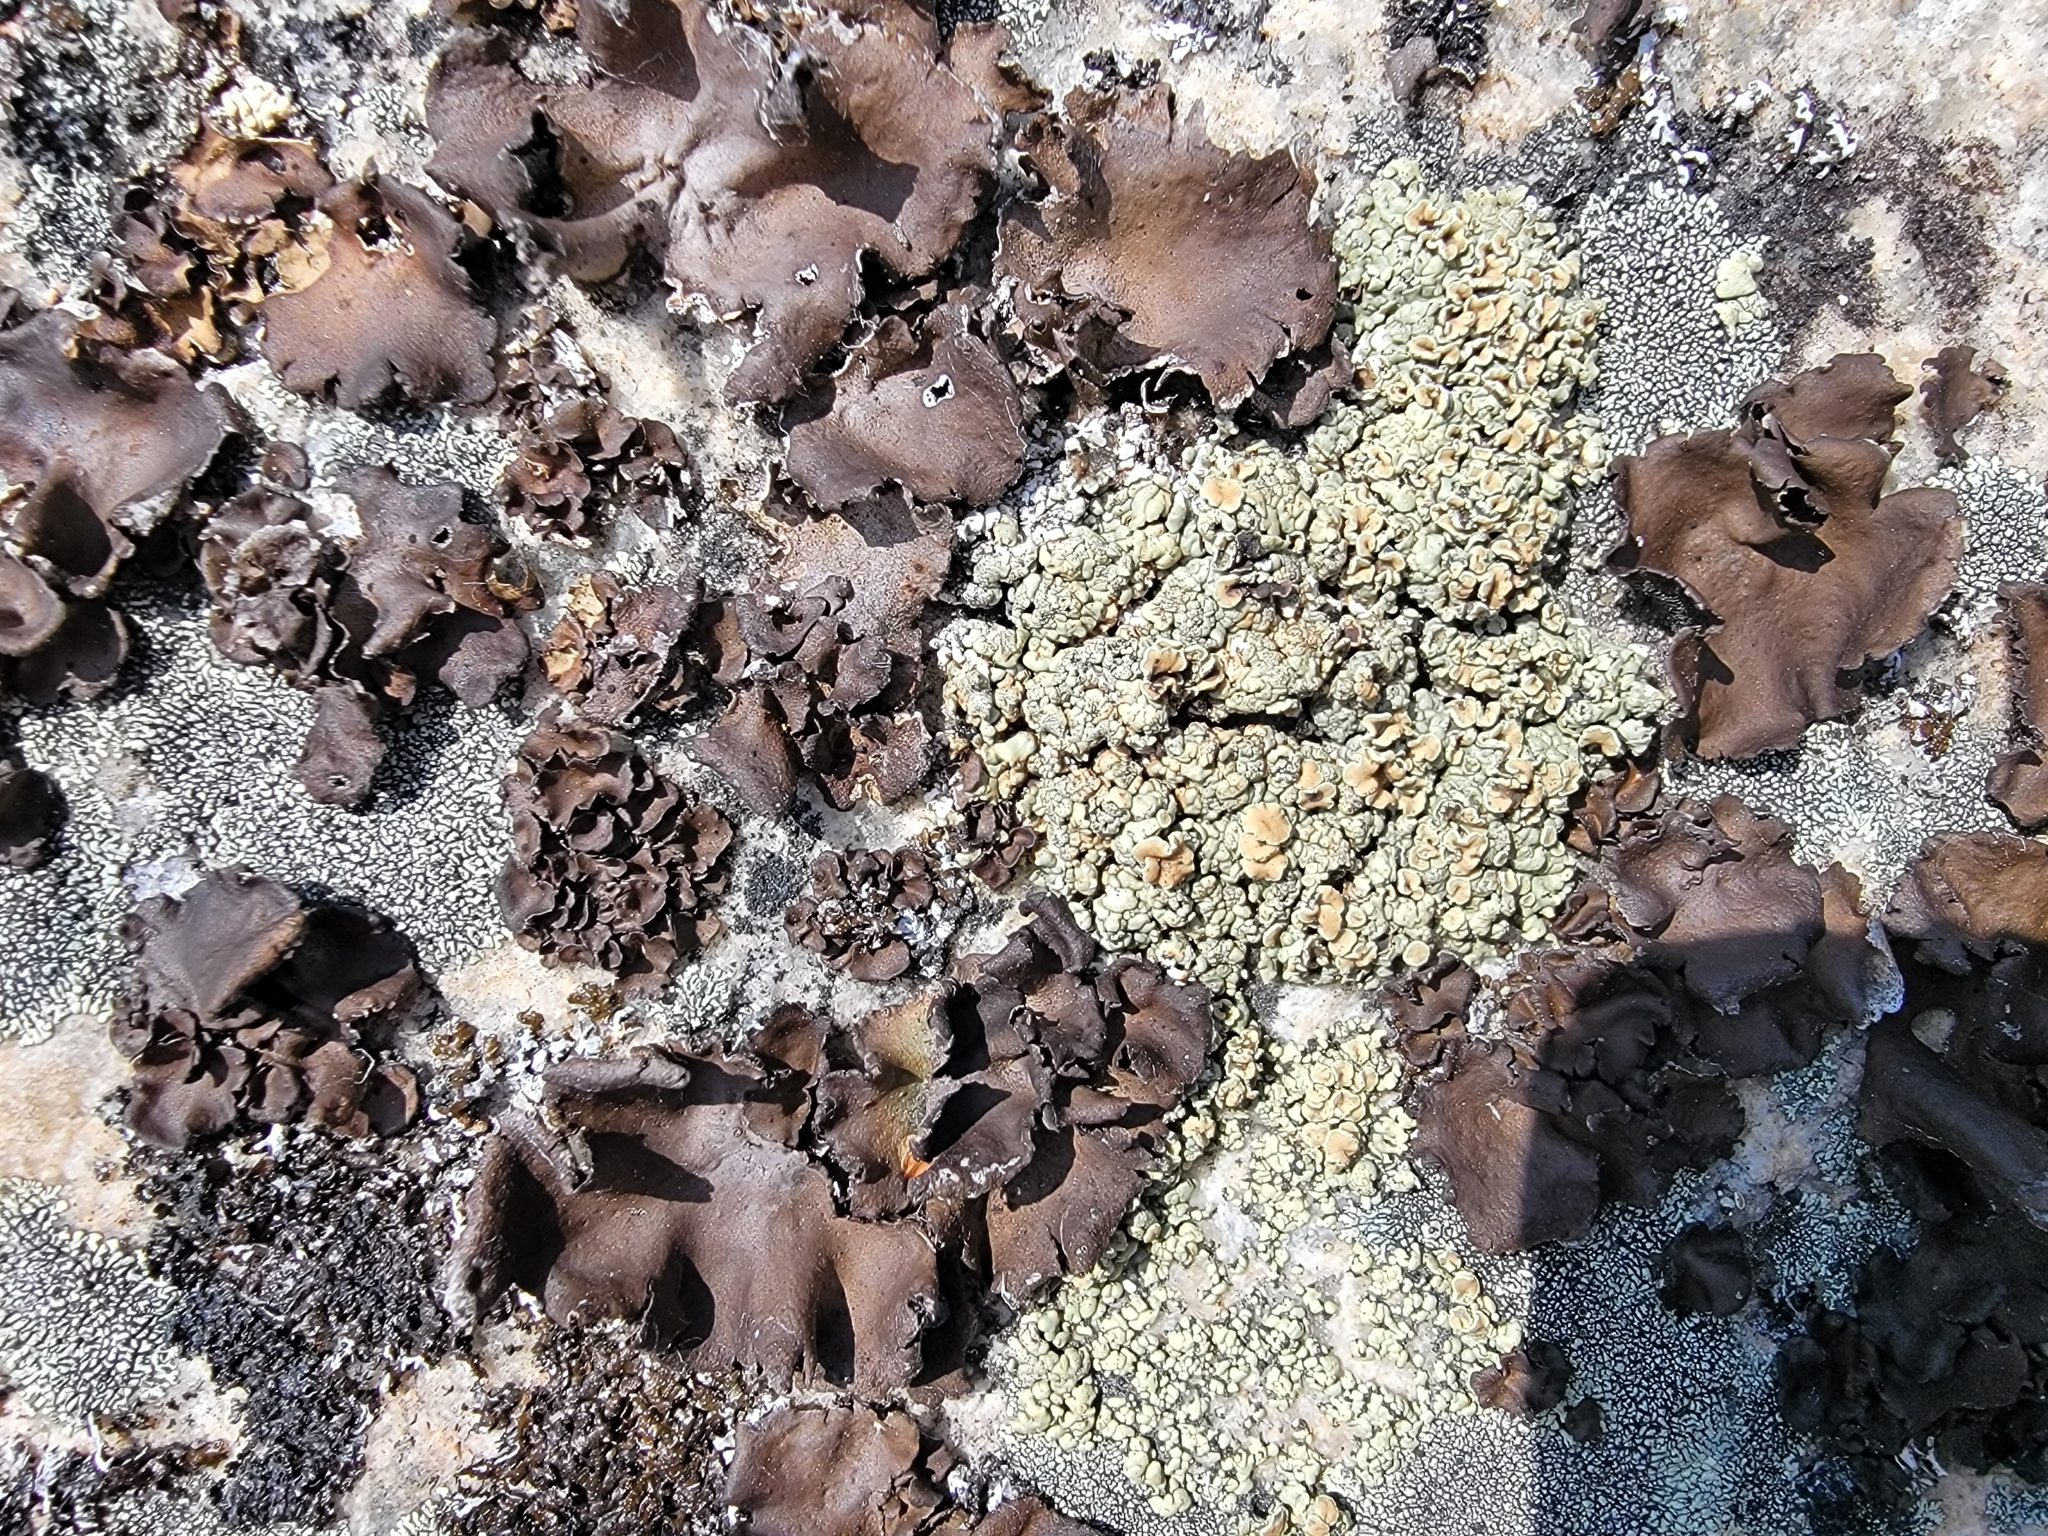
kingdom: Fungi
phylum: Ascomycota
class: Lecanoromycetes
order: Lecanorales
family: Lecanoraceae
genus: Sedelnikovaea
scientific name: Sedelnikovaea subdiscrepans
